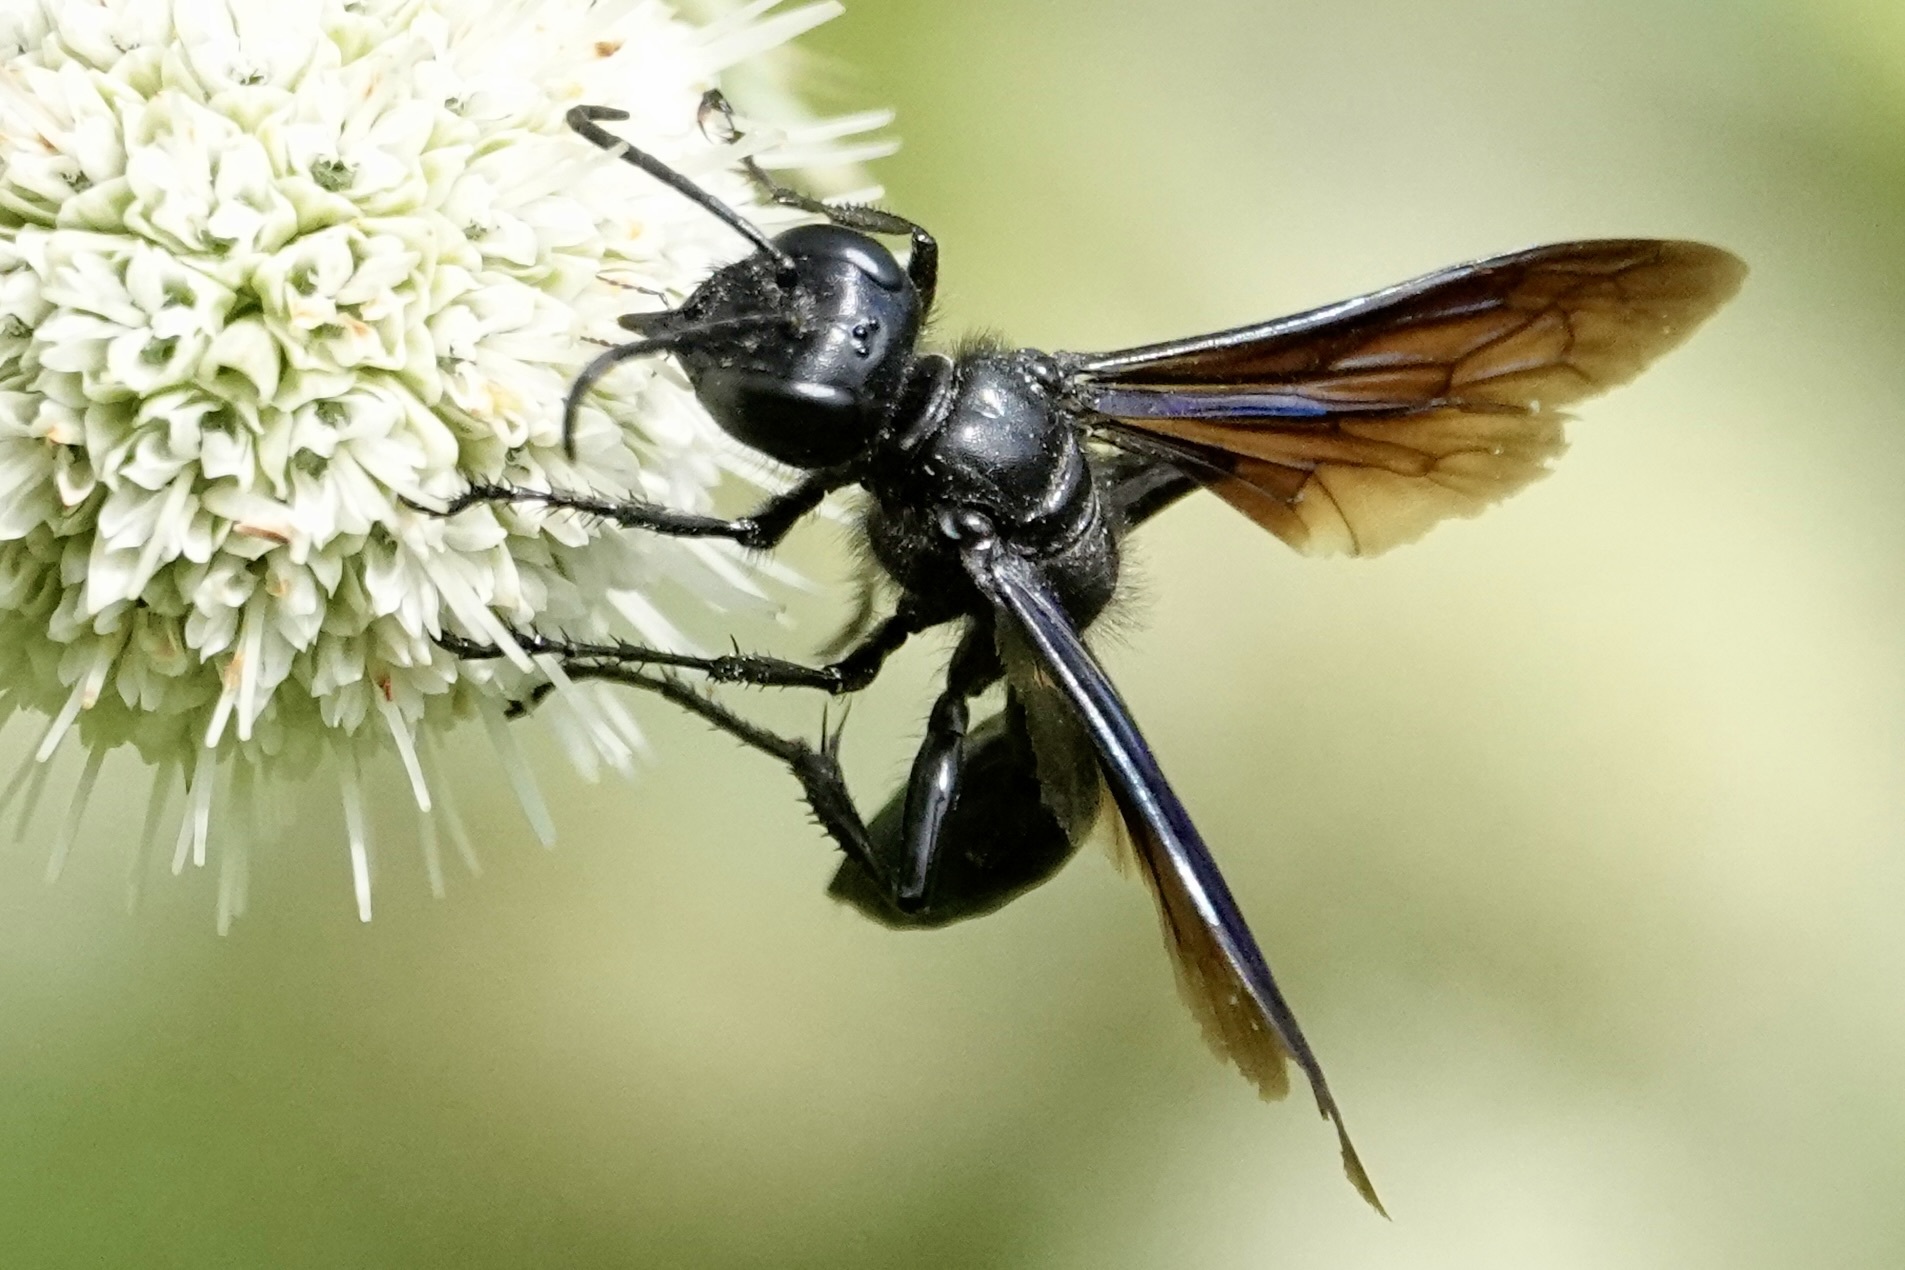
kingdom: Animalia
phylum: Arthropoda
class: Insecta
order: Hymenoptera
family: Sphecidae
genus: Isodontia
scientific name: Isodontia philadelphica
